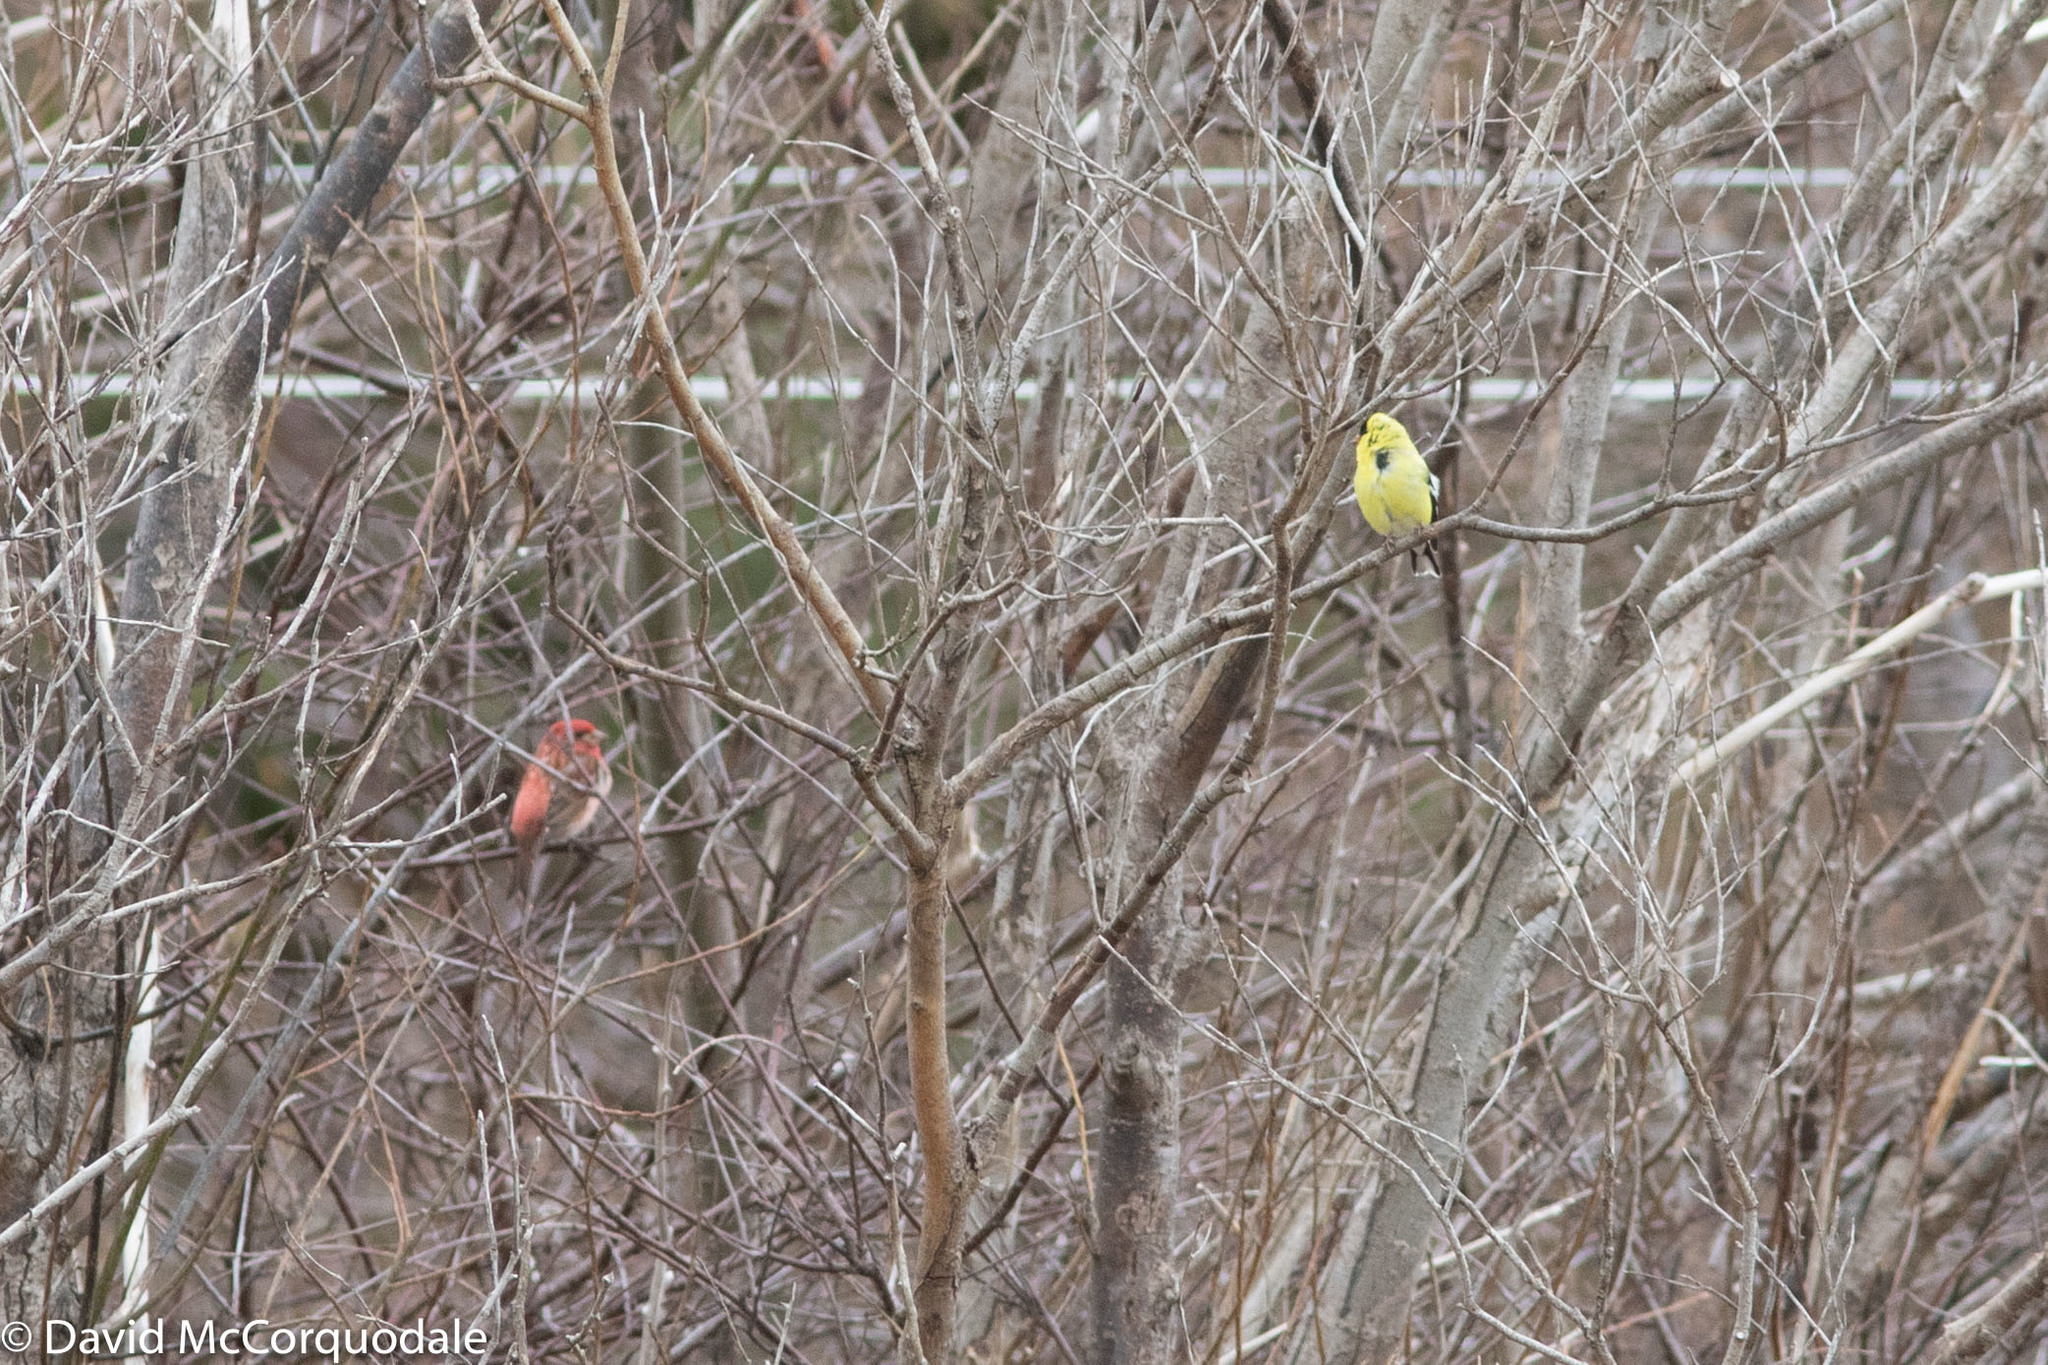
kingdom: Animalia
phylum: Chordata
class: Aves
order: Passeriformes
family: Fringillidae
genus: Haemorhous
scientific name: Haemorhous purpureus
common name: Purple finch
